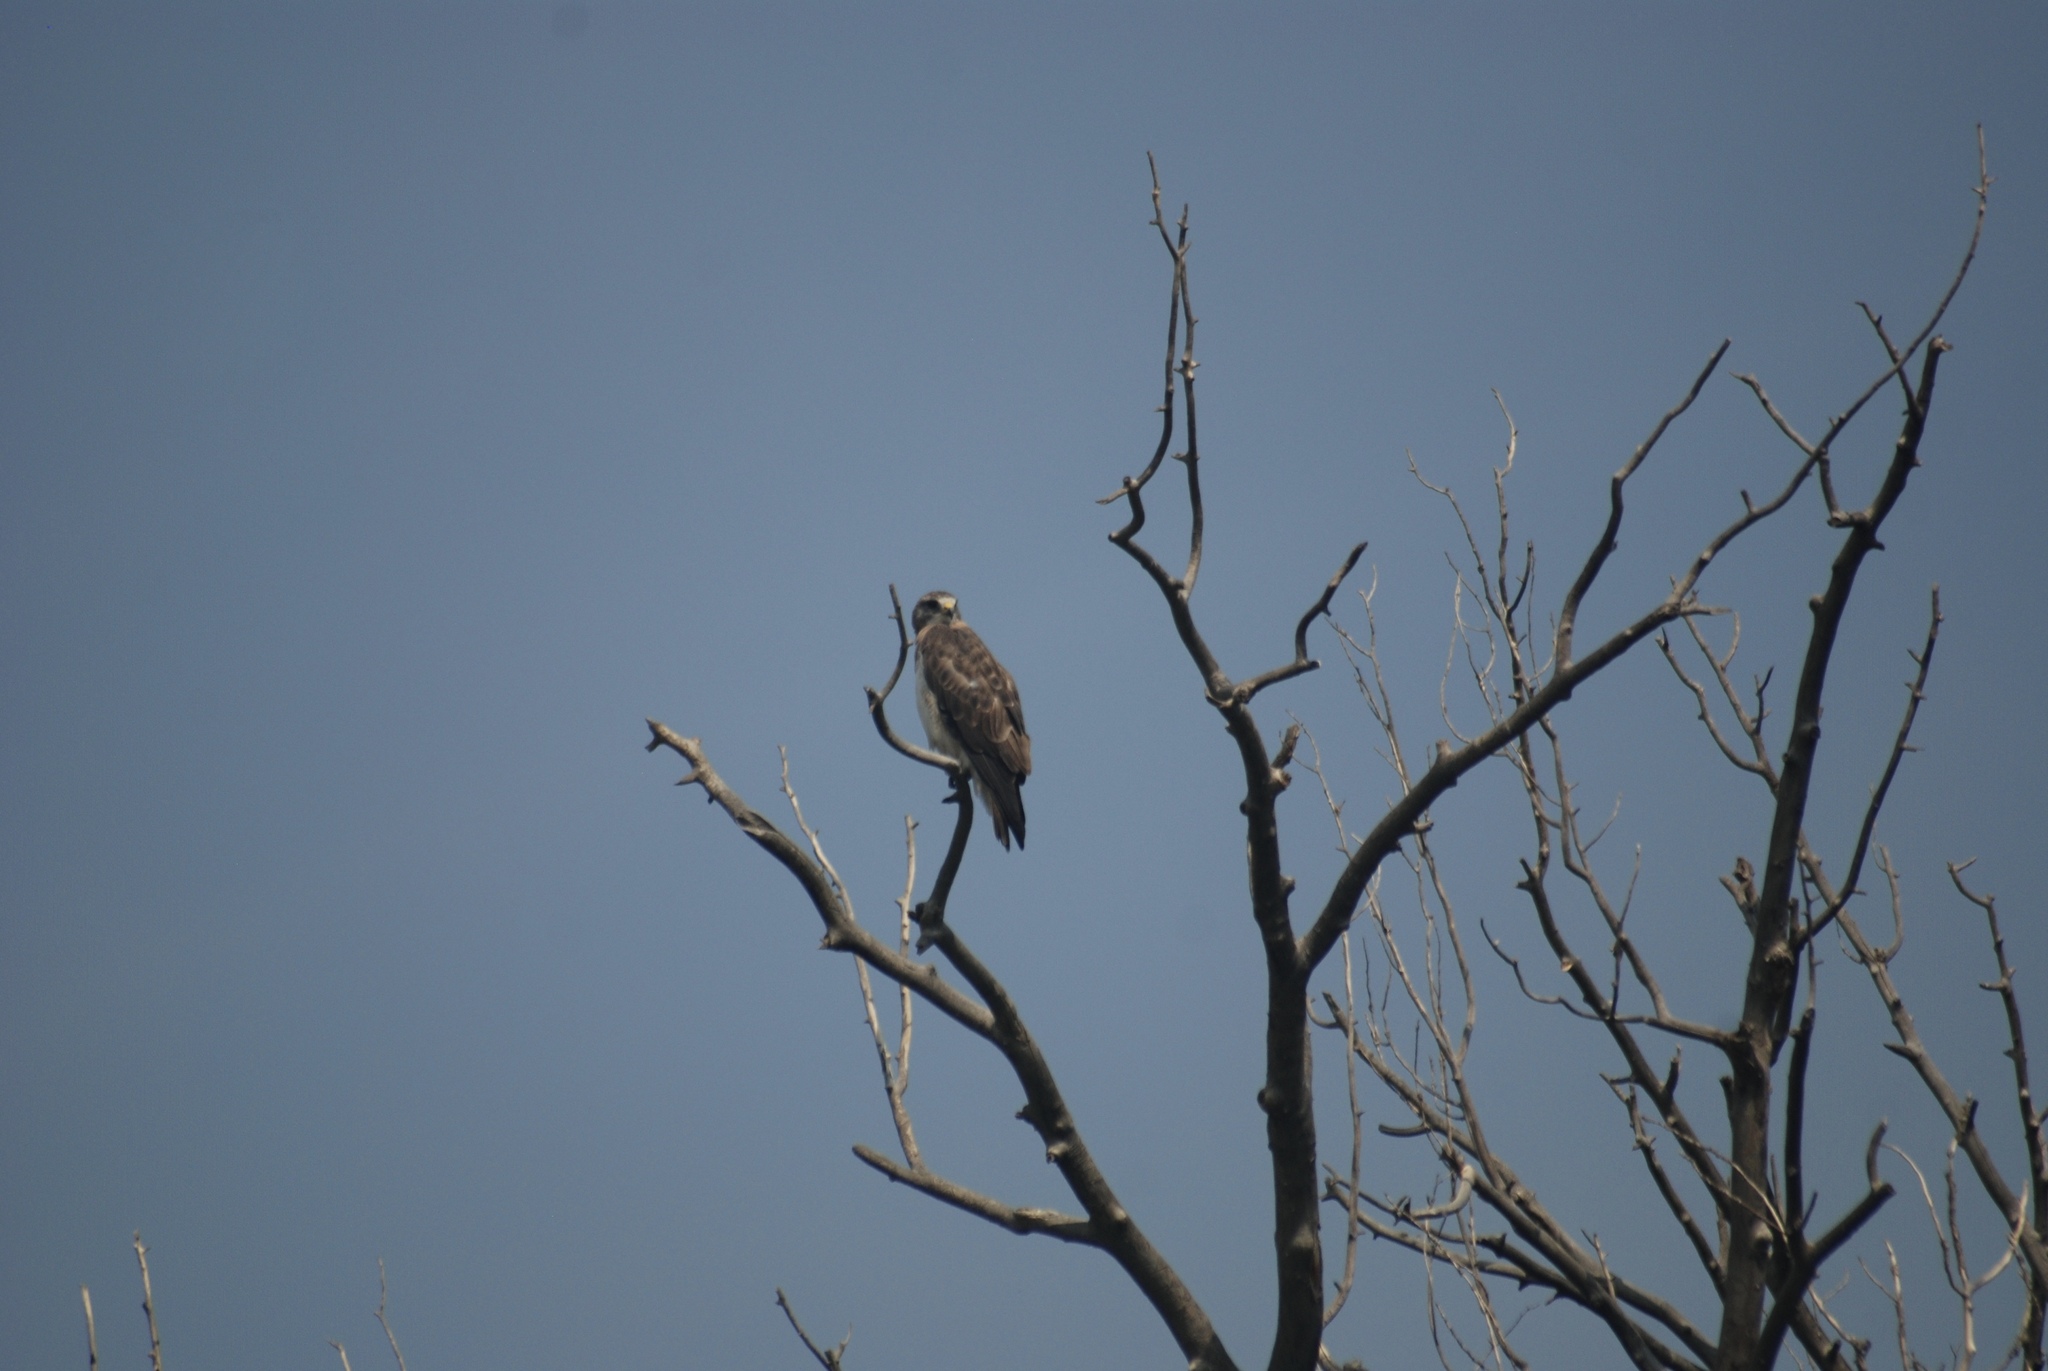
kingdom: Animalia
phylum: Chordata
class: Aves
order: Accipitriformes
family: Accipitridae
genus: Buteo
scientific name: Buteo swainsoni
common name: Swainson's hawk
